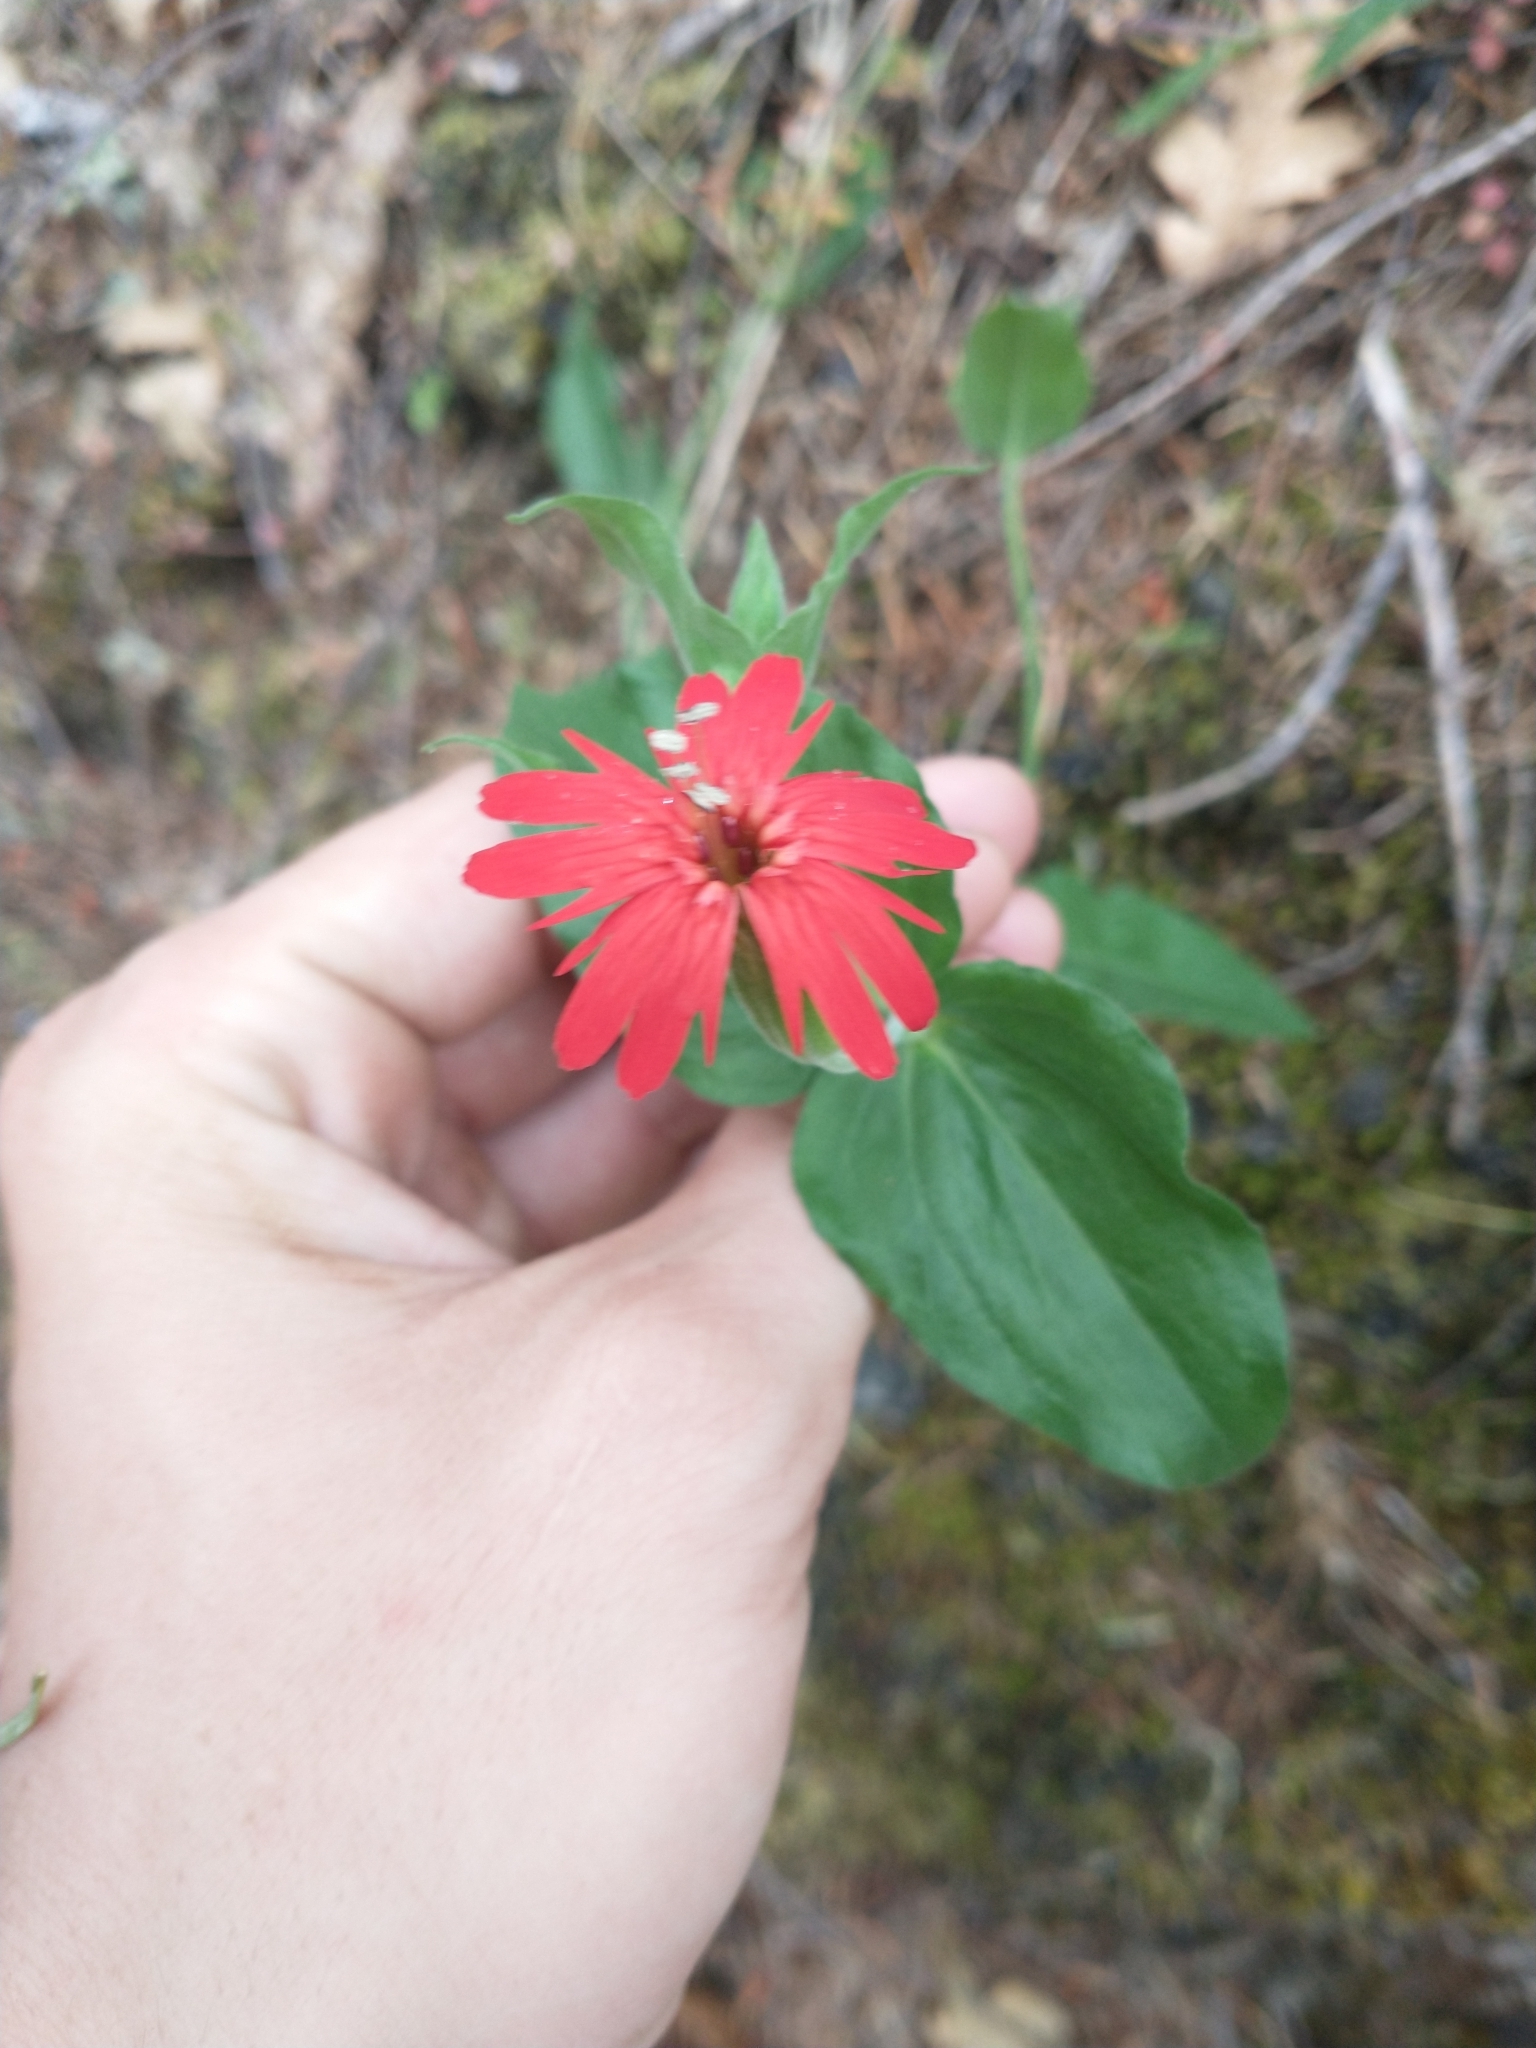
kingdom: Plantae
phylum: Tracheophyta
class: Magnoliopsida
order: Caryophyllales
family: Caryophyllaceae
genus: Silene
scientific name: Silene laciniata
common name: Indian-pink
